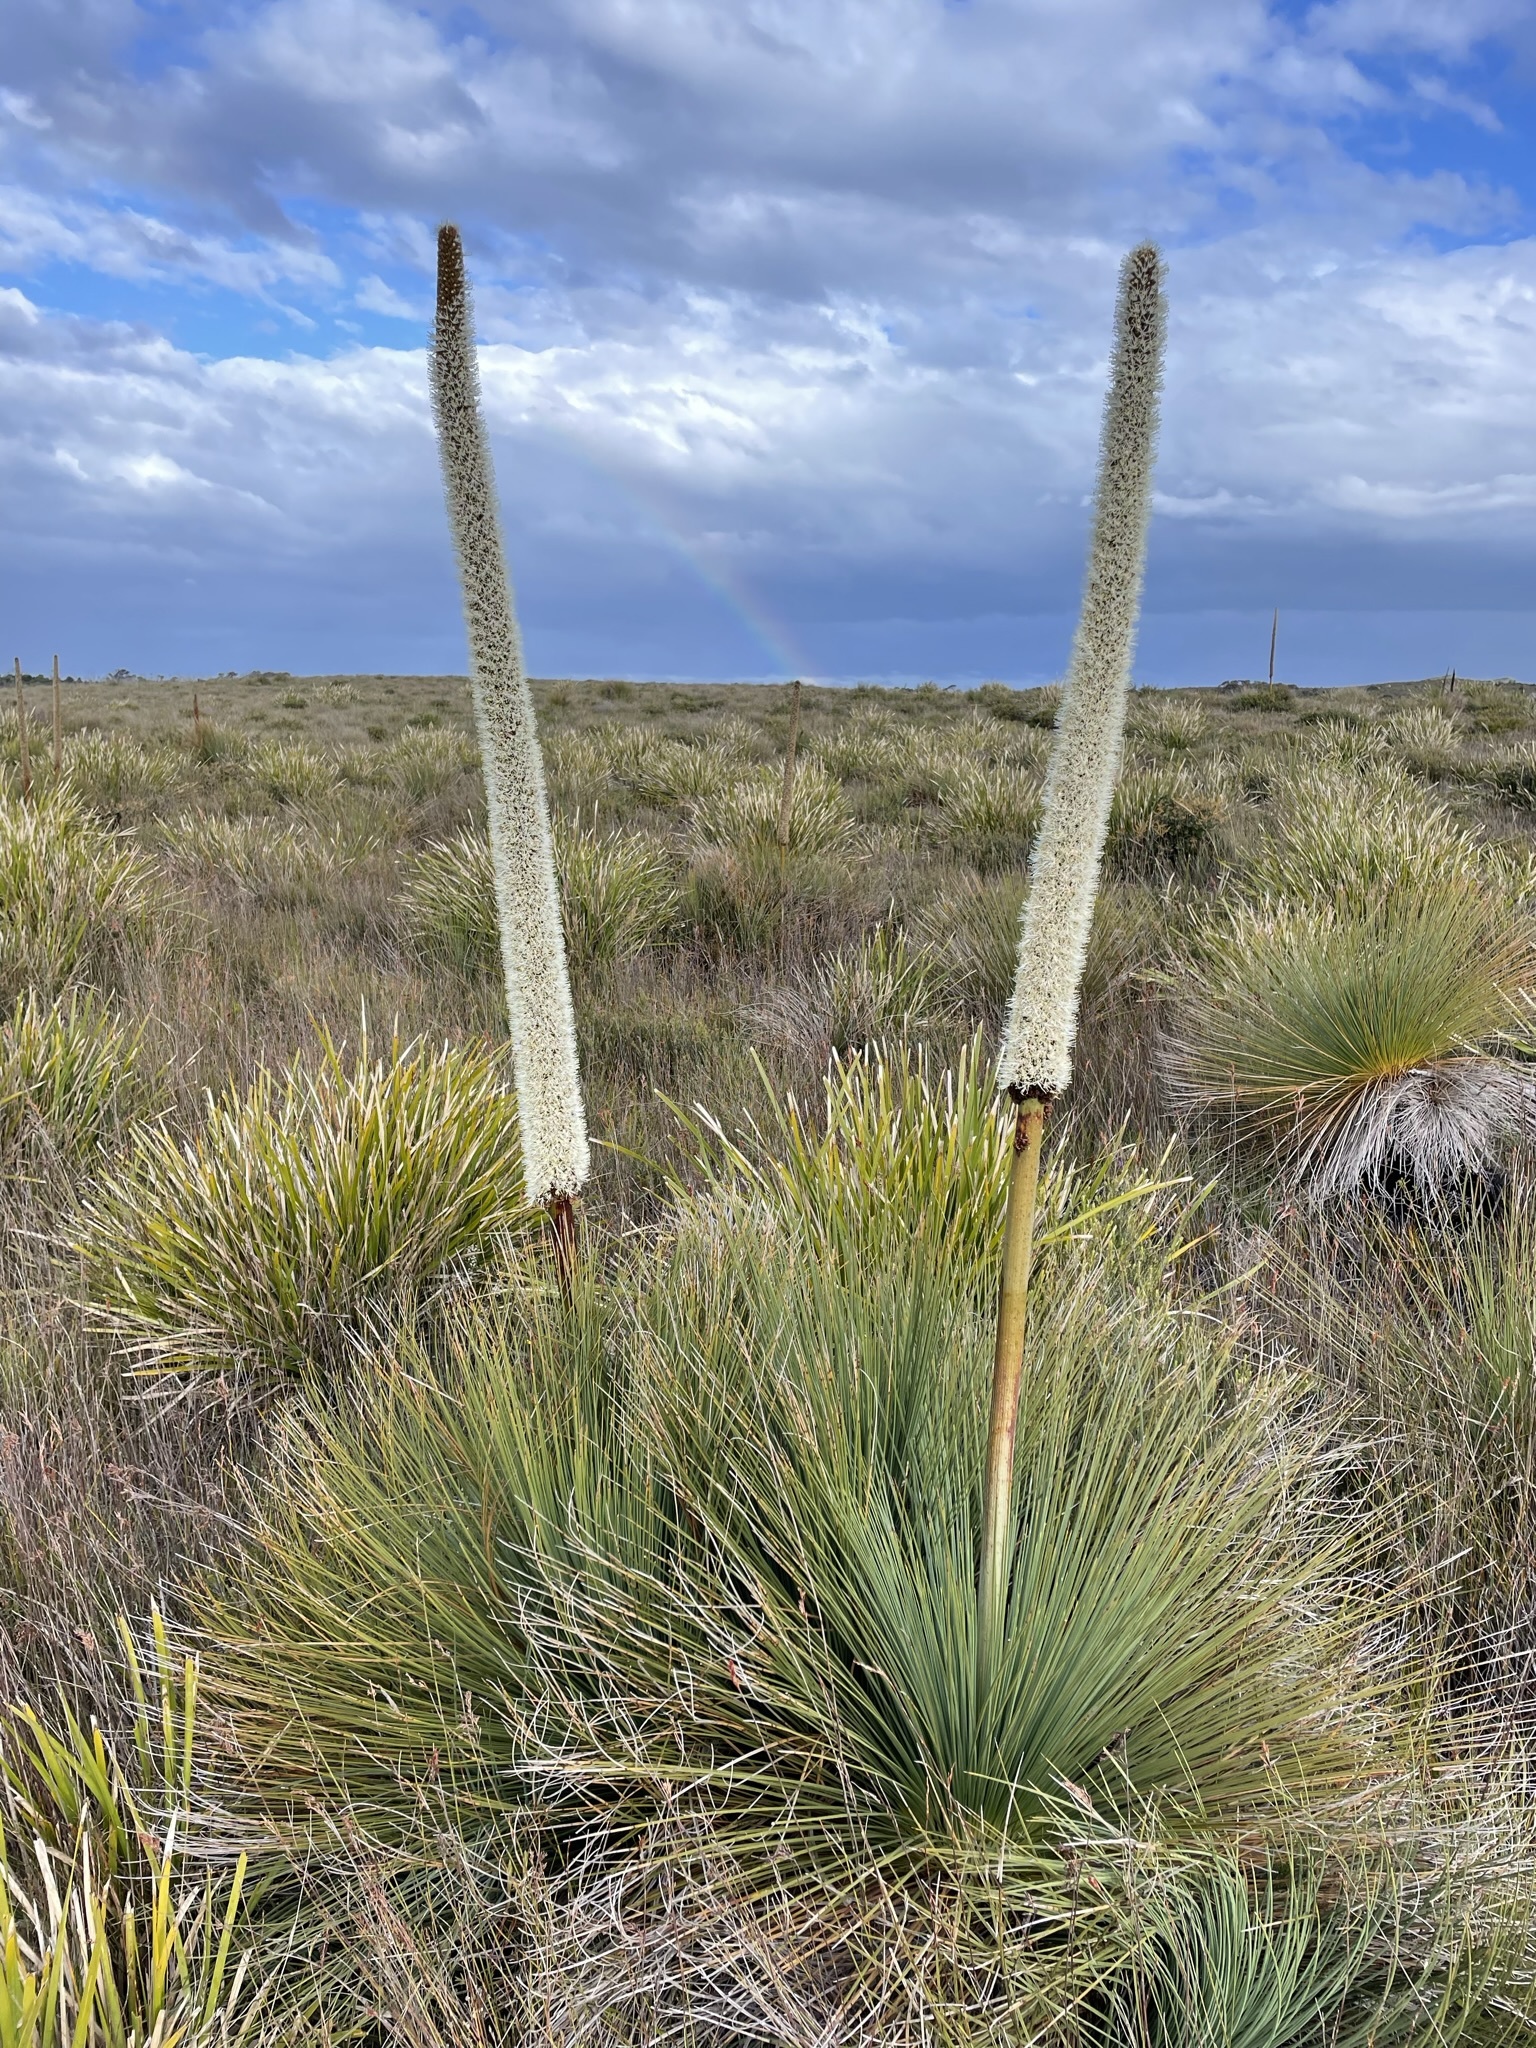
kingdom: Plantae
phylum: Tracheophyta
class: Liliopsida
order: Asparagales
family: Asphodelaceae
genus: Xanthorrhoea
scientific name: Xanthorrhoea australis
